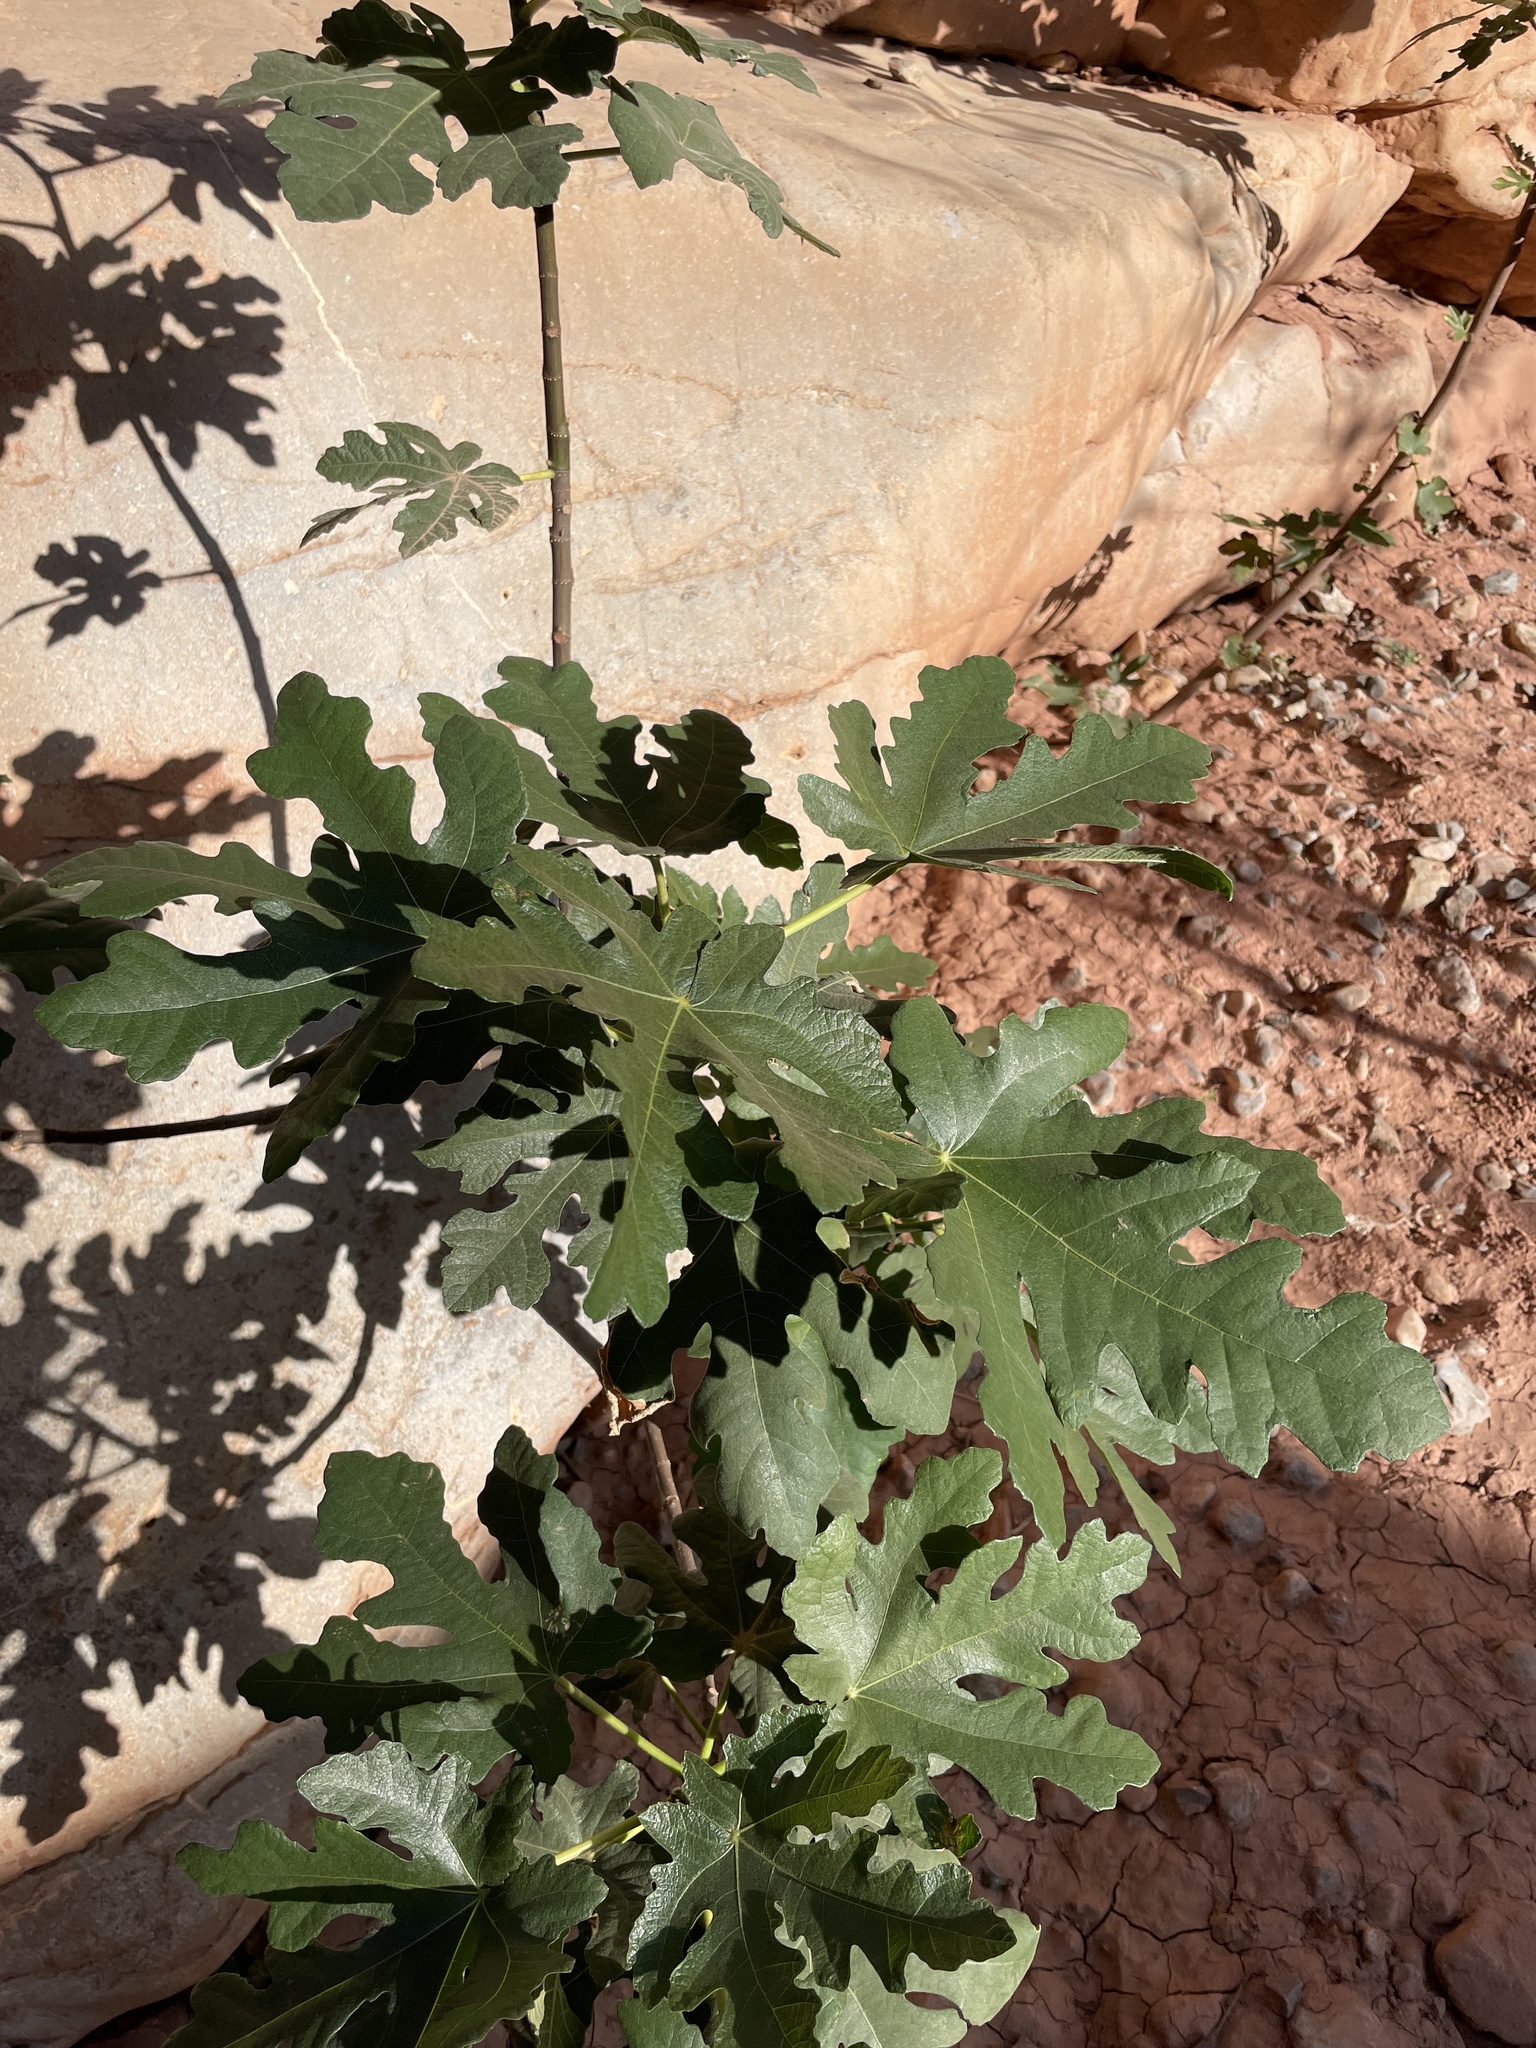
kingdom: Plantae
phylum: Tracheophyta
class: Magnoliopsida
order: Rosales
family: Moraceae
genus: Ficus
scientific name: Ficus carica
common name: Fig
